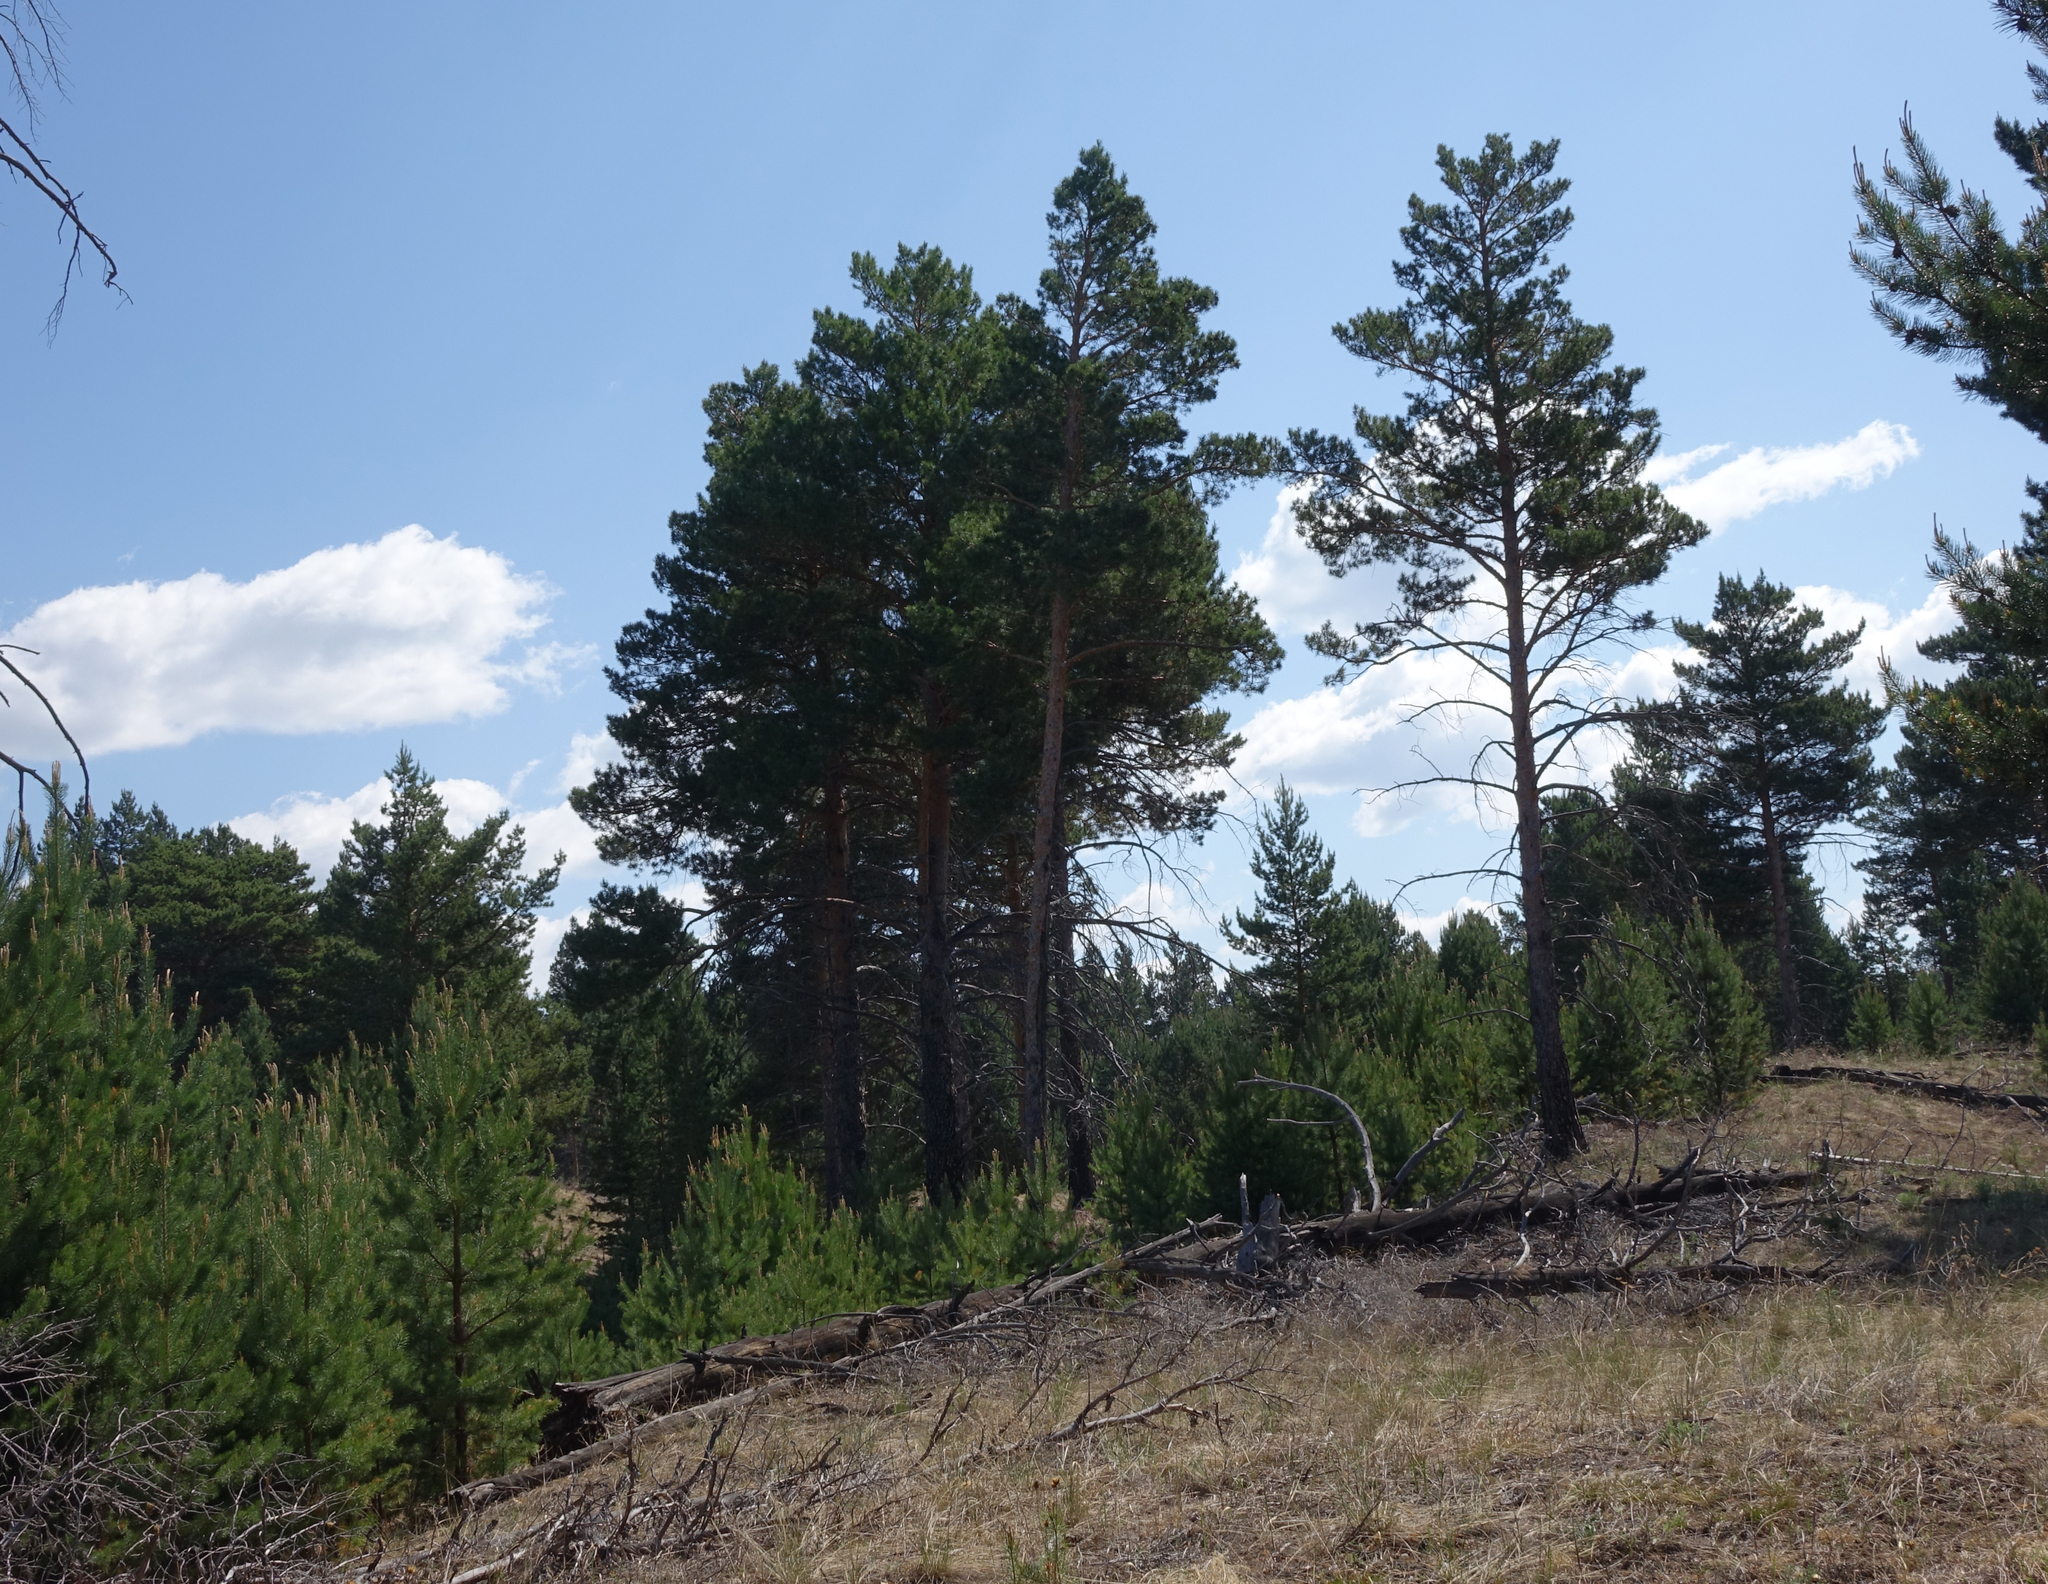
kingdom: Plantae
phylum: Tracheophyta
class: Pinopsida
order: Pinales
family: Pinaceae
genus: Pinus
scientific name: Pinus sylvestris
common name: Scots pine
